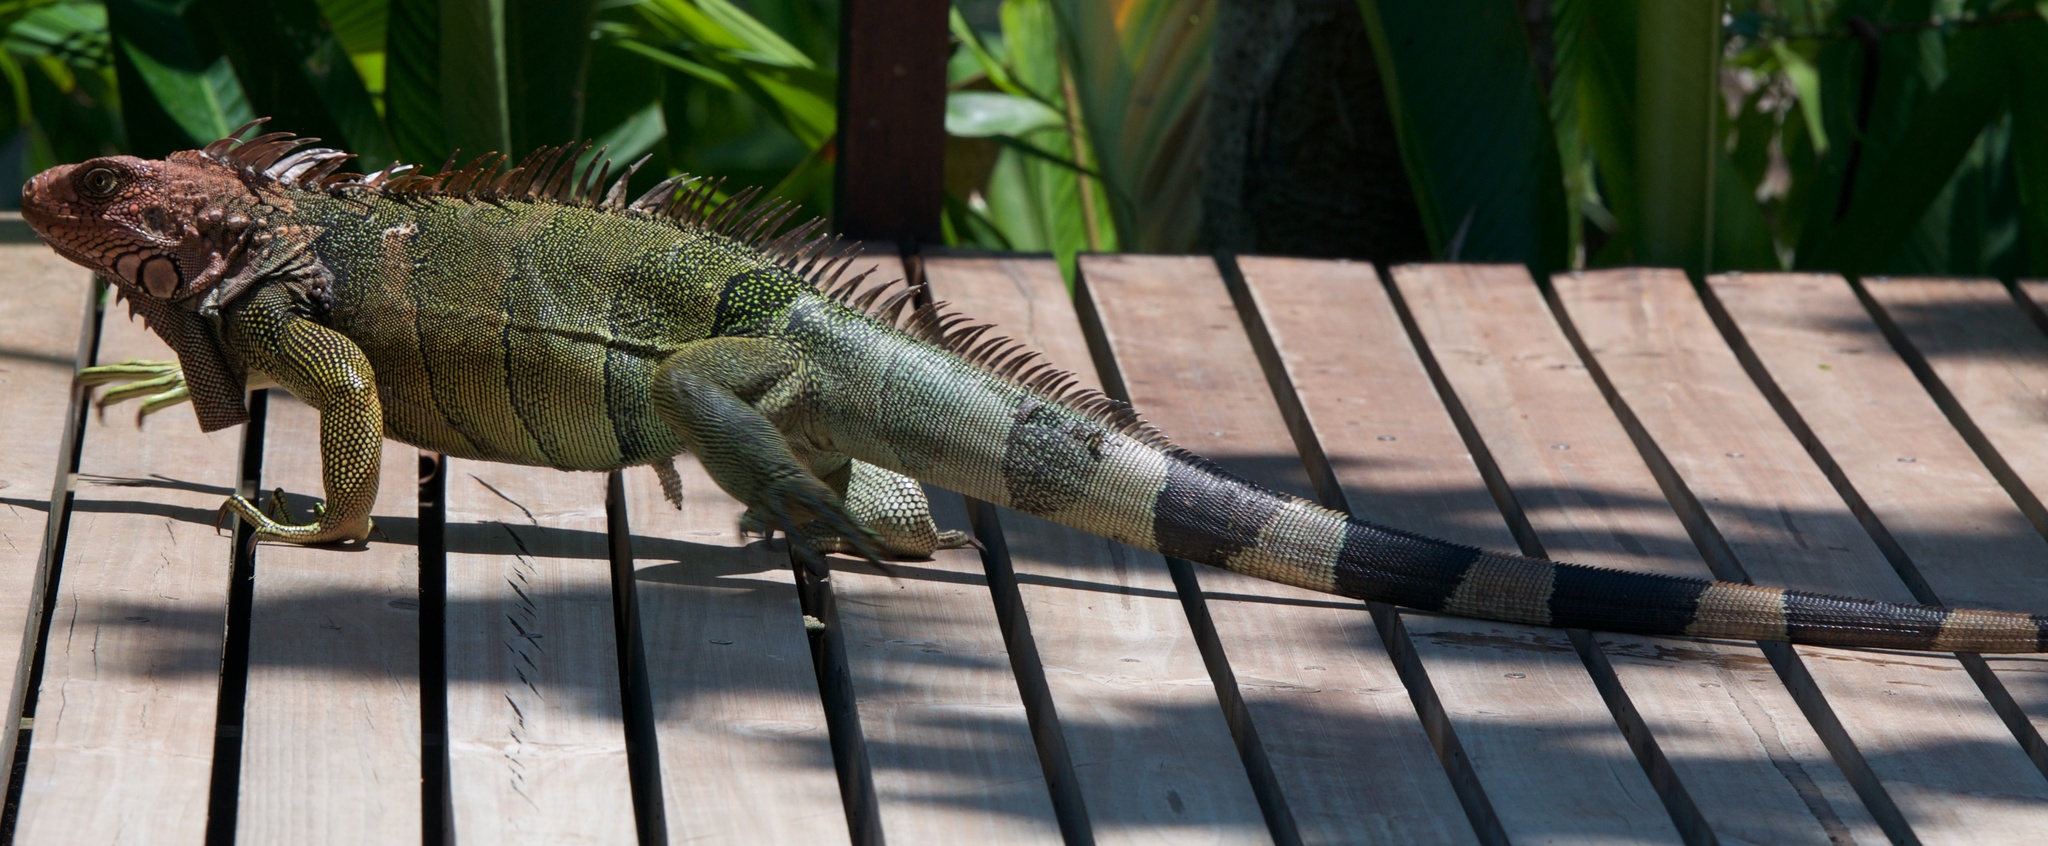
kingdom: Animalia
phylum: Chordata
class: Squamata
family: Iguanidae
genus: Iguana
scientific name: Iguana iguana
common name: Green iguana
